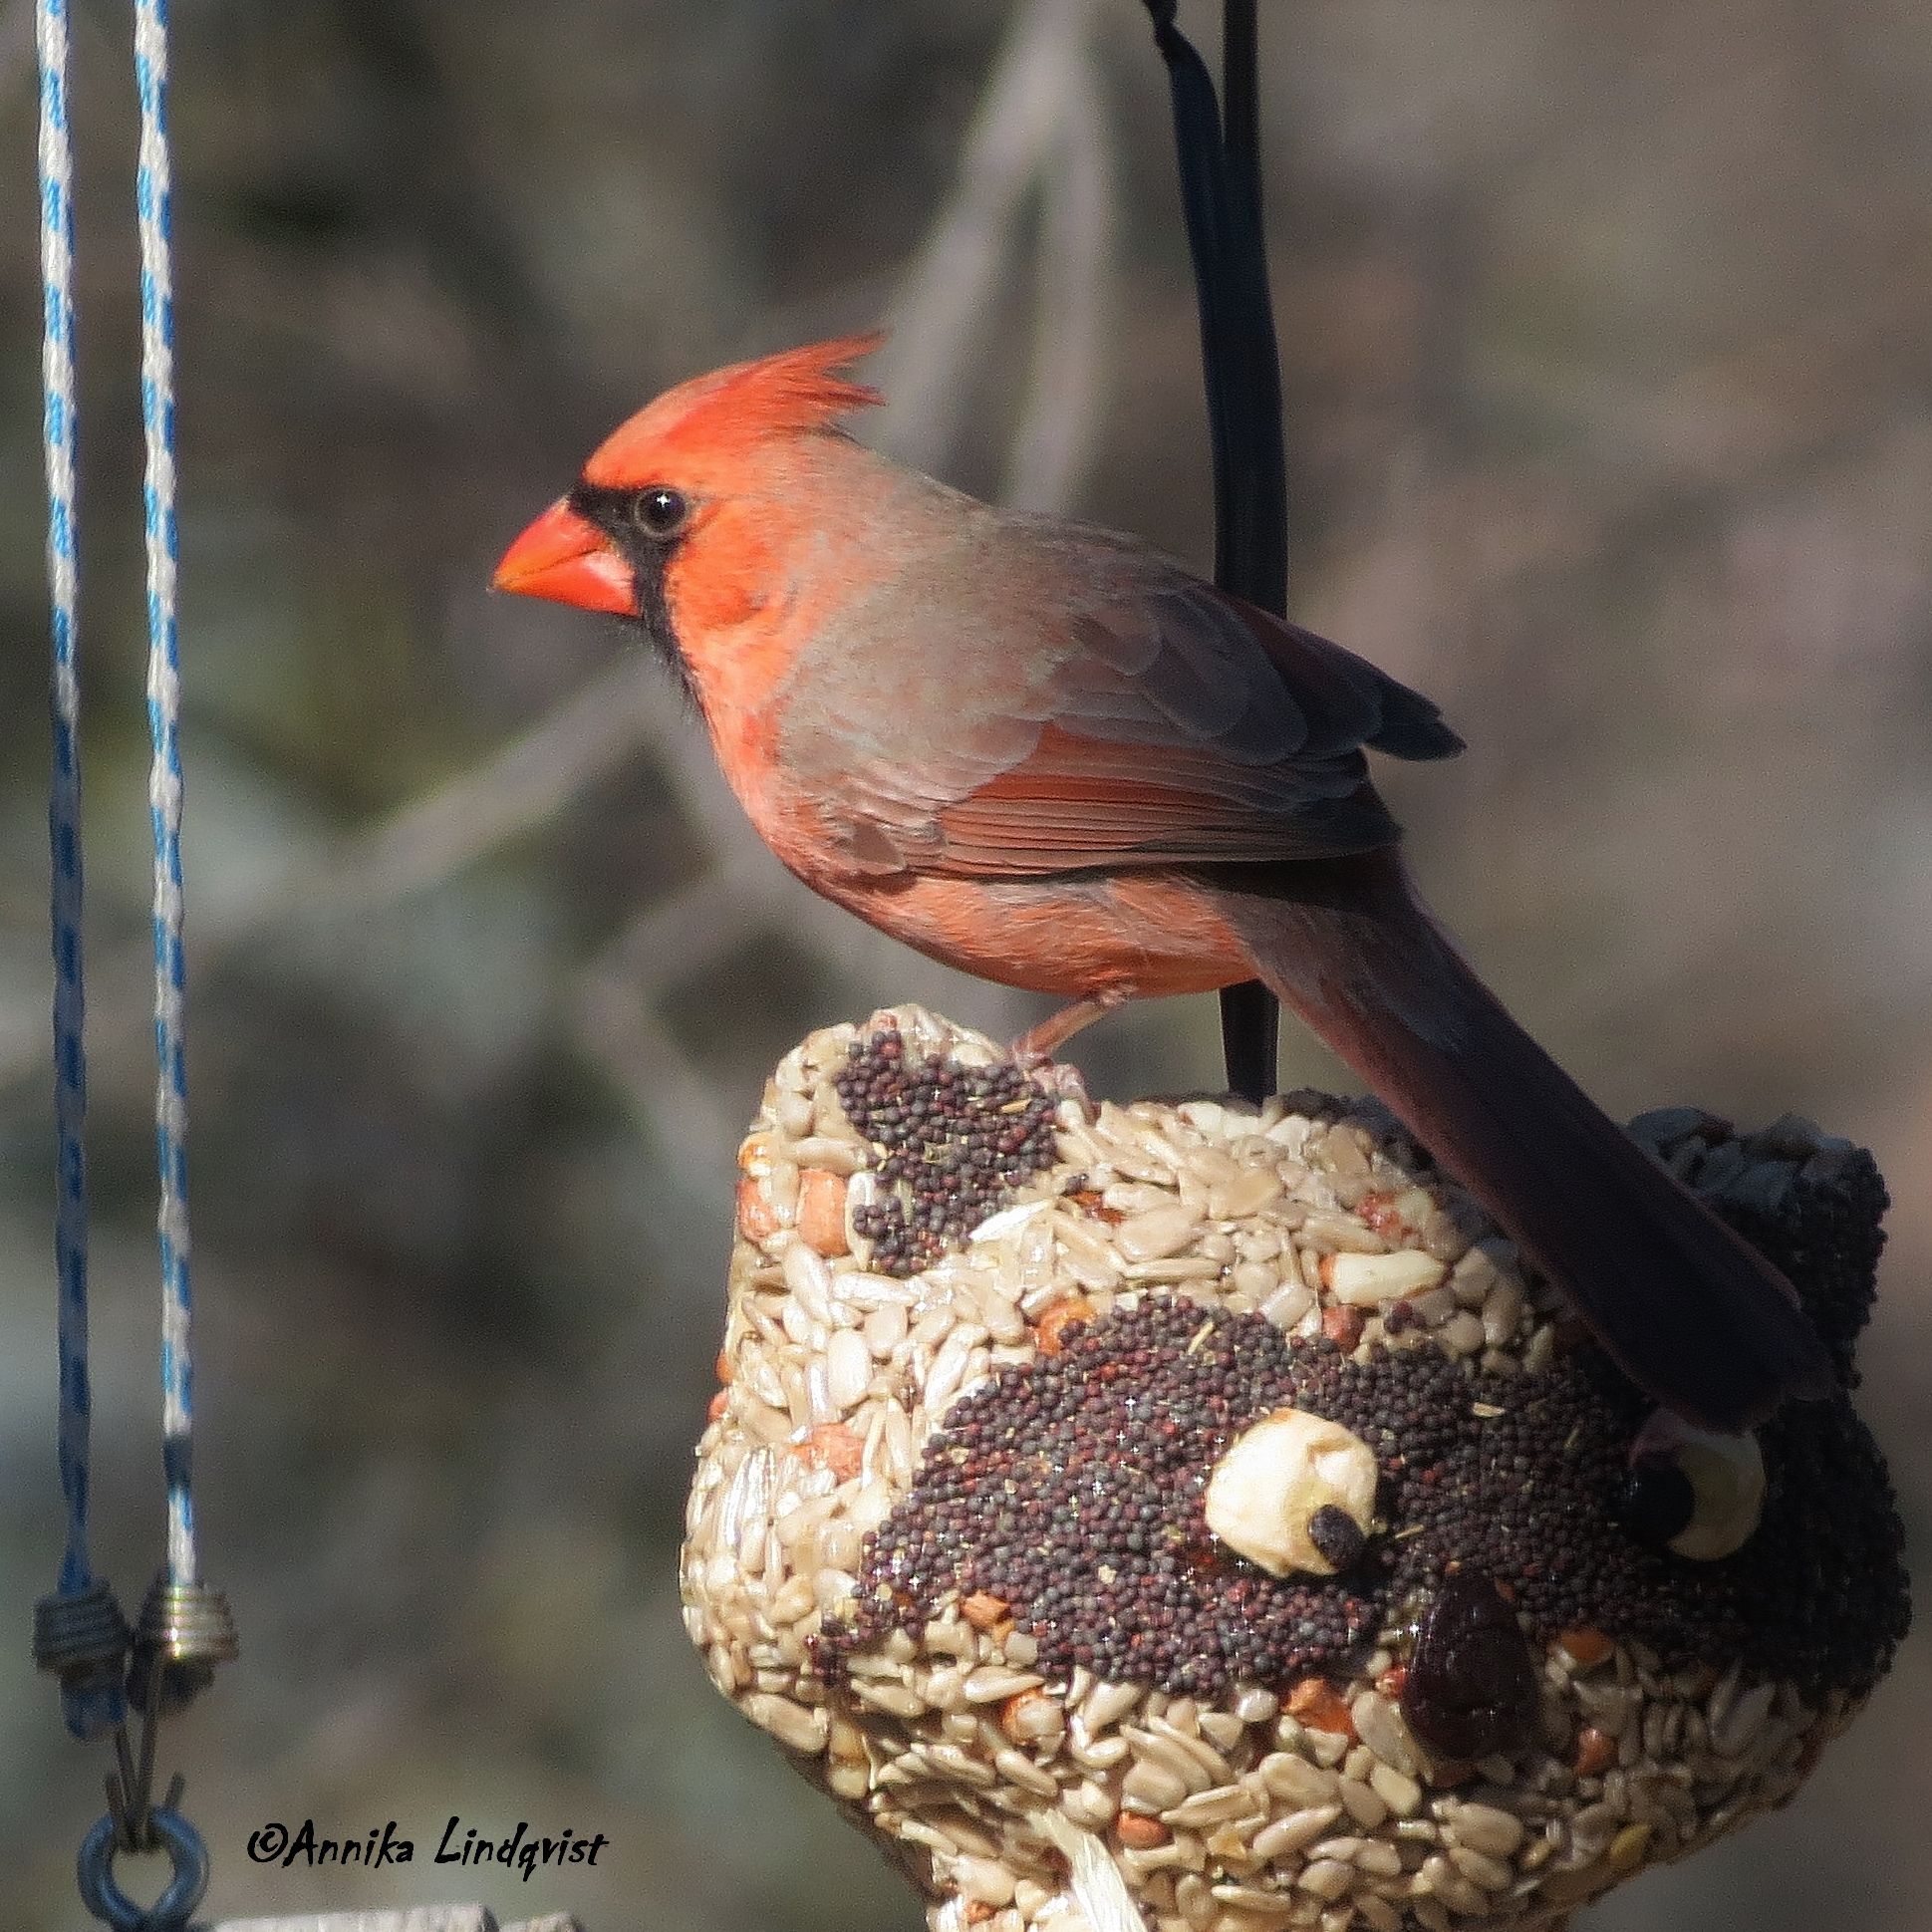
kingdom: Animalia
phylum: Chordata
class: Aves
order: Passeriformes
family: Cardinalidae
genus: Cardinalis
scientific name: Cardinalis cardinalis
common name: Northern cardinal
